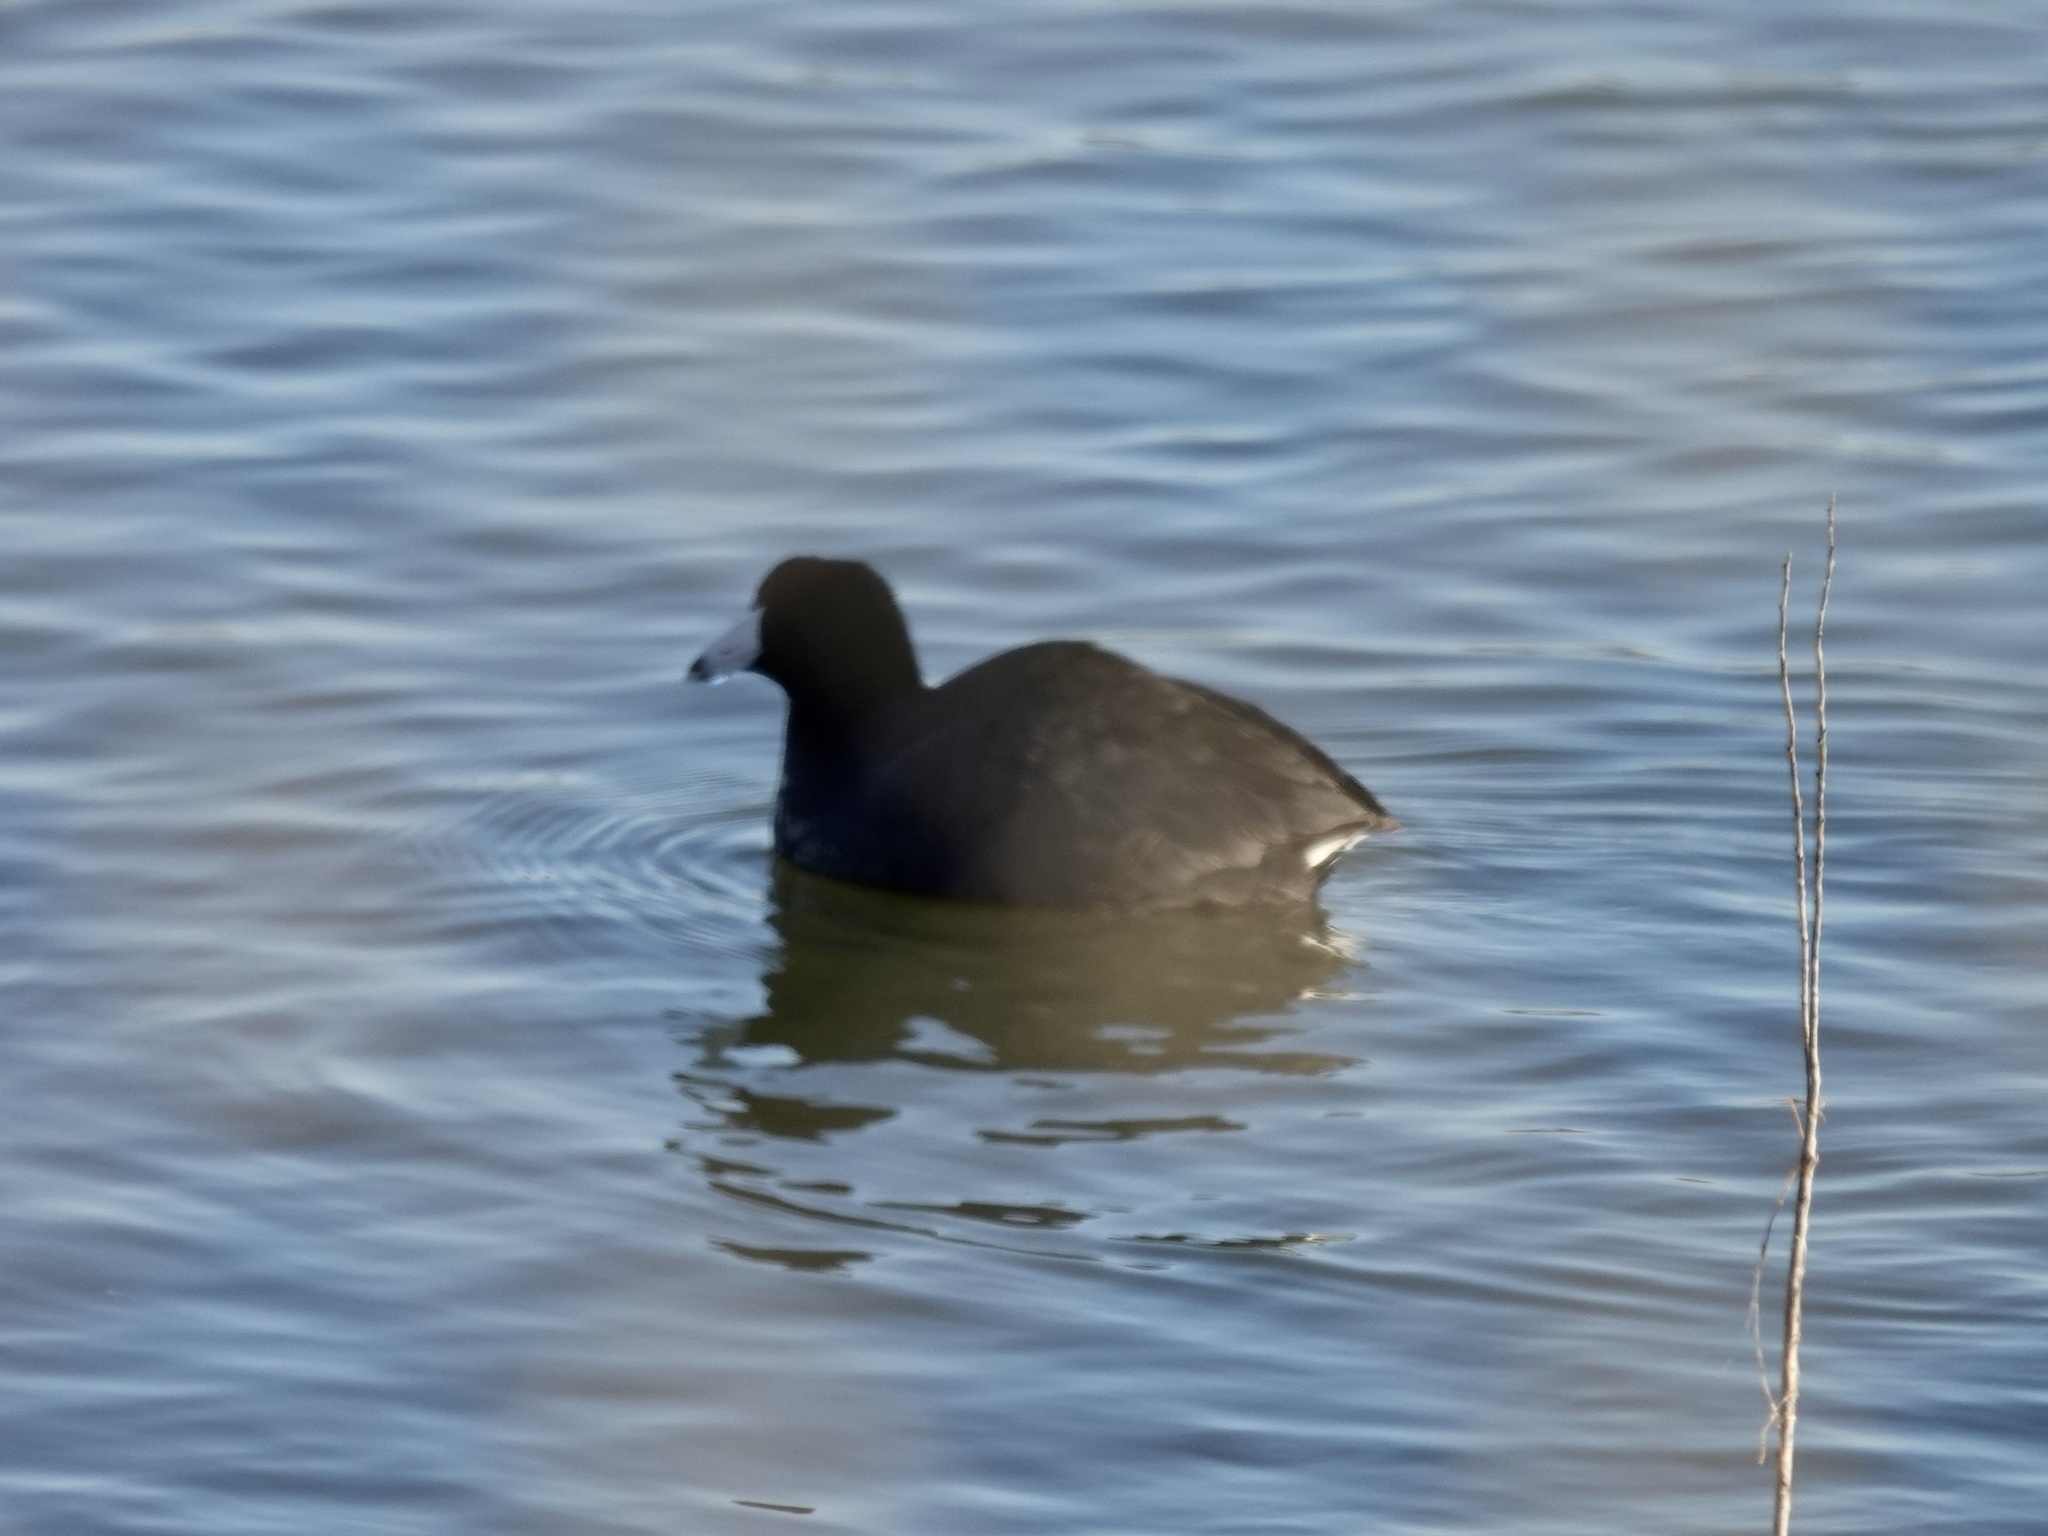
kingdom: Animalia
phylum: Chordata
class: Aves
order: Gruiformes
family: Rallidae
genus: Fulica
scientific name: Fulica americana
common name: American coot
